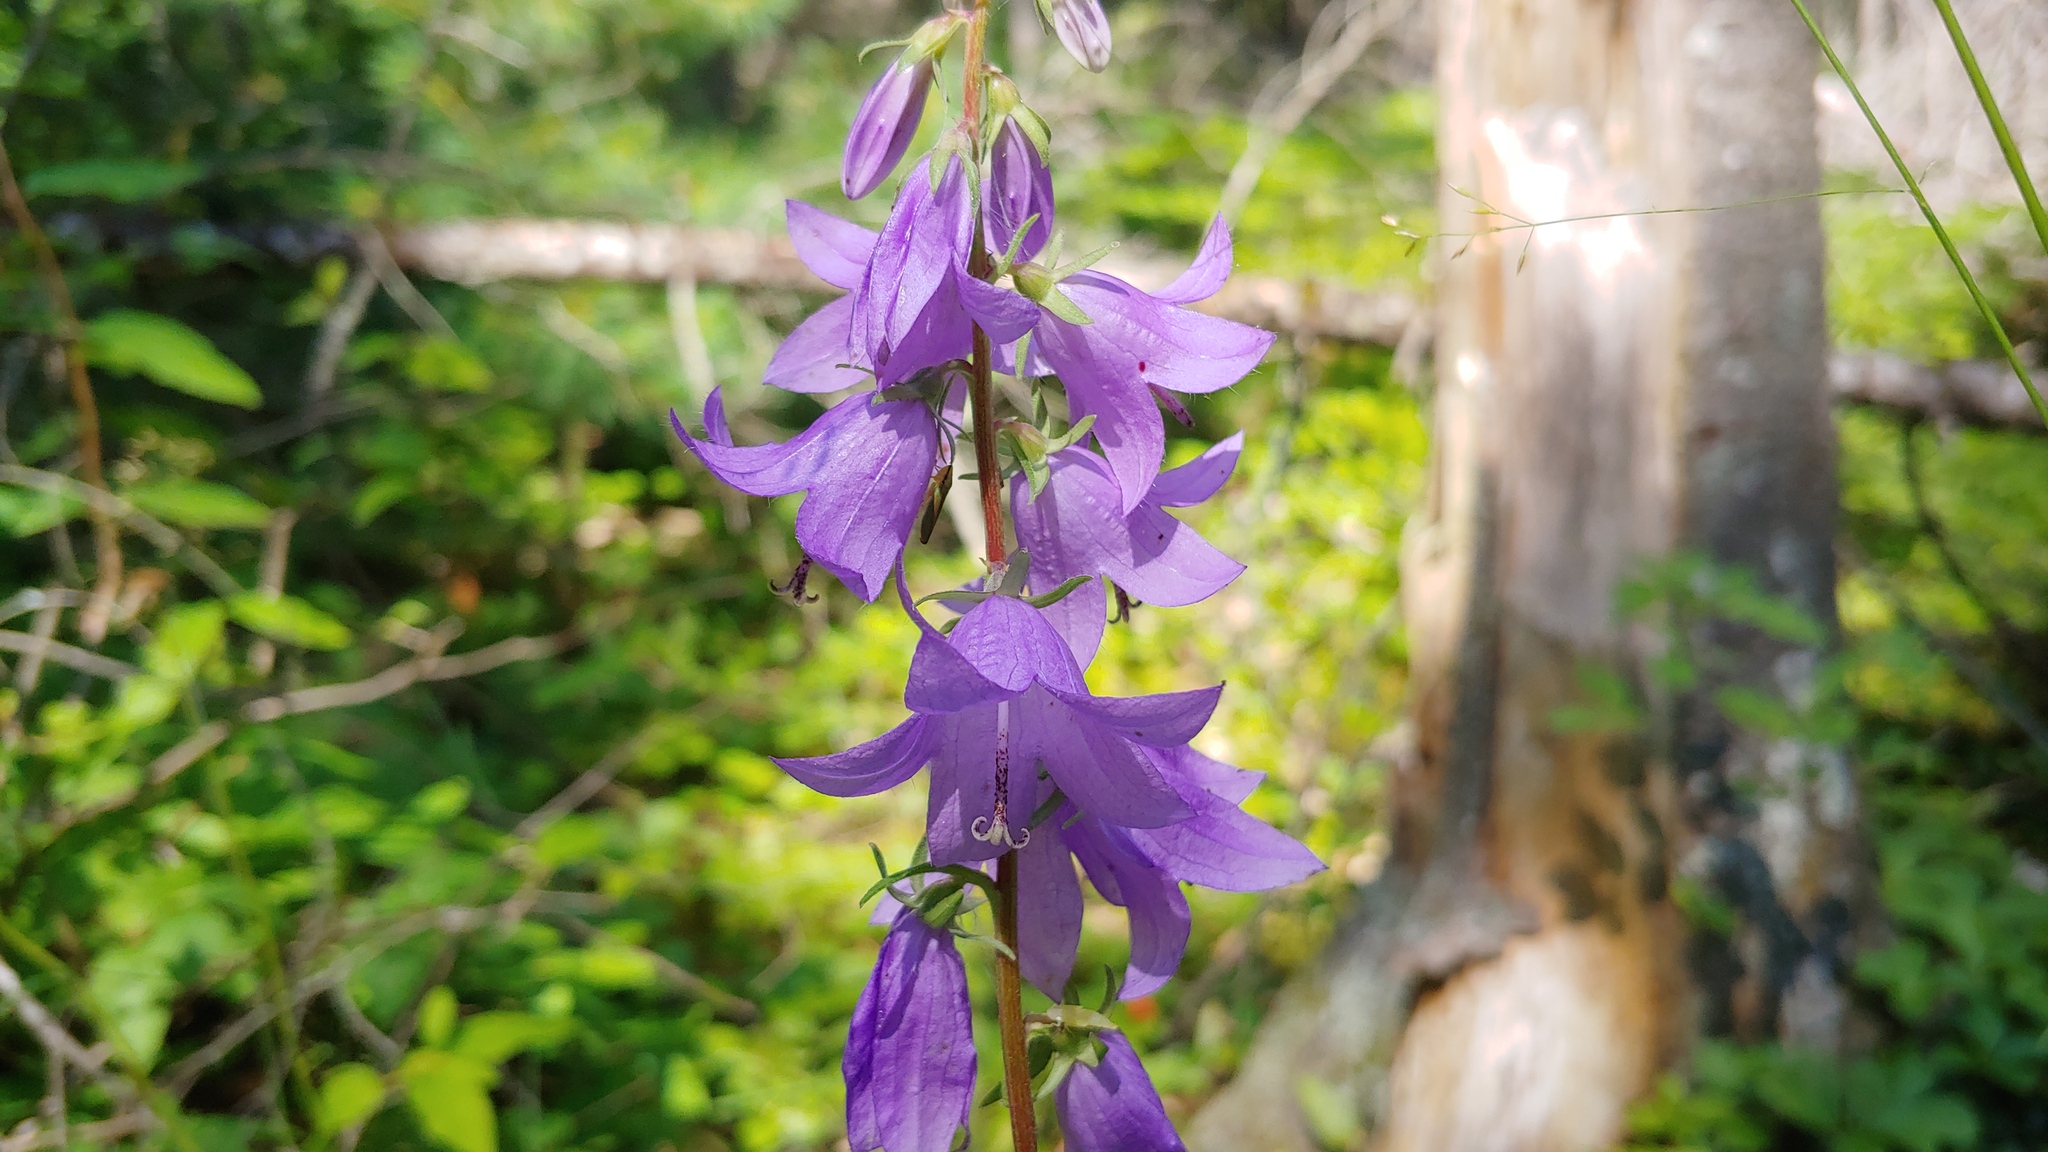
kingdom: Plantae
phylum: Tracheophyta
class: Magnoliopsida
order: Asterales
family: Campanulaceae
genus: Campanula
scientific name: Campanula rapunculoides
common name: Creeping bellflower
